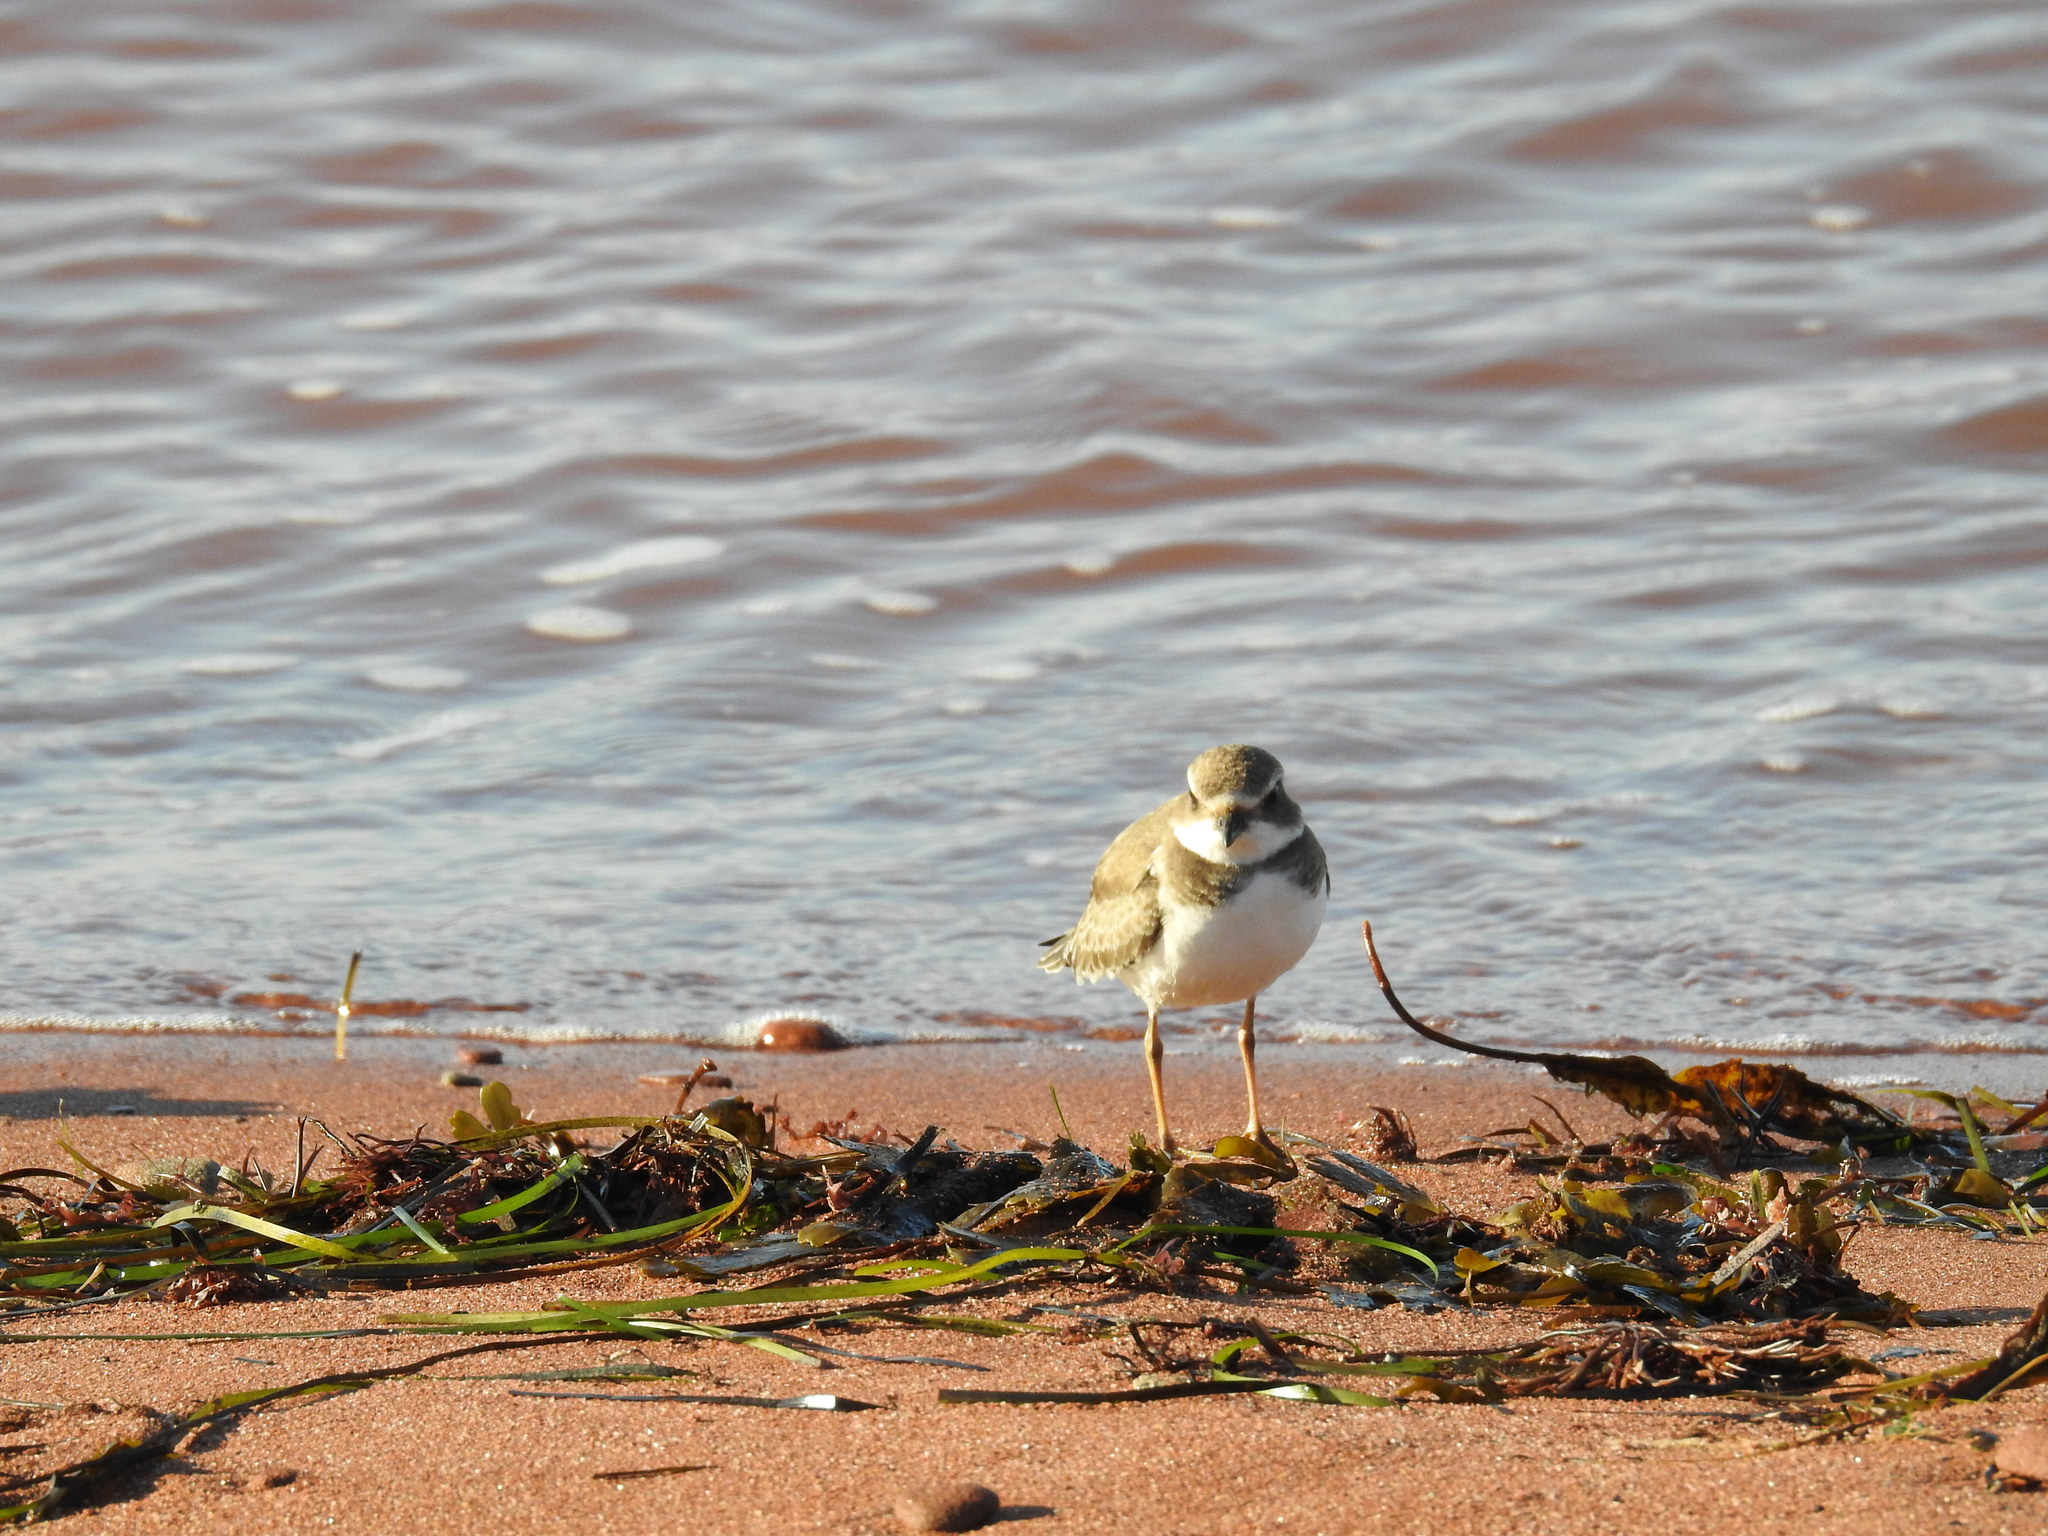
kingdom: Animalia
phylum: Chordata
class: Aves
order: Charadriiformes
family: Charadriidae
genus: Charadrius
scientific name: Charadrius semipalmatus
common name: Semipalmated plover
